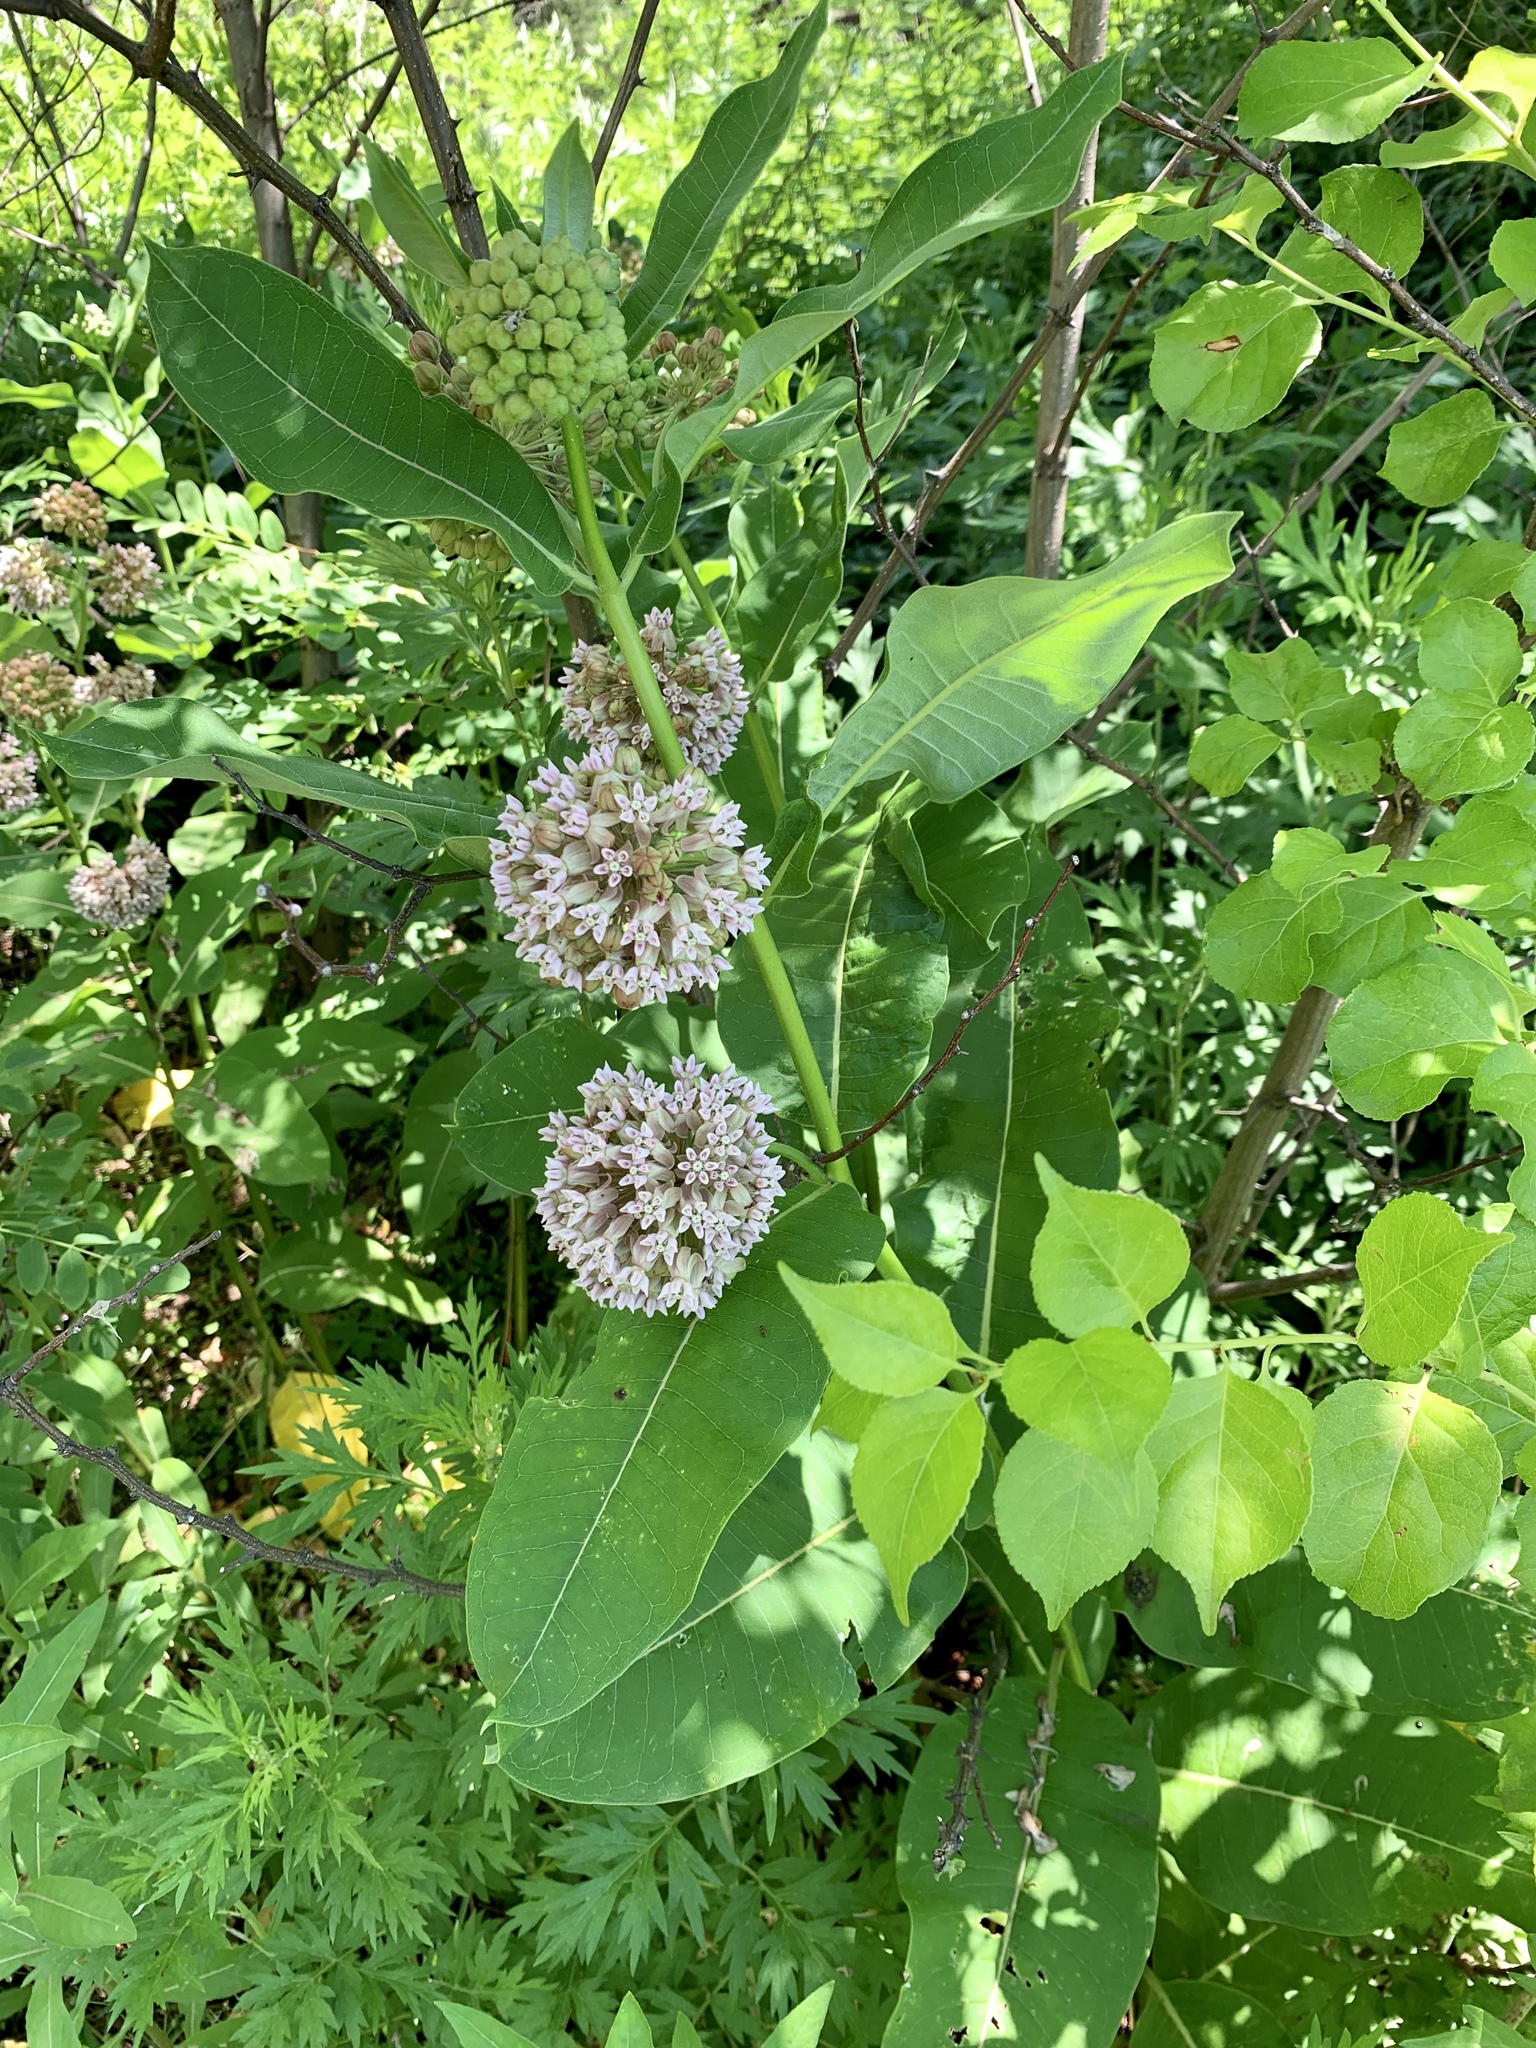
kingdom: Plantae
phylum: Tracheophyta
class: Magnoliopsida
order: Gentianales
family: Apocynaceae
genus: Asclepias
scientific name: Asclepias syriaca
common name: Common milkweed
